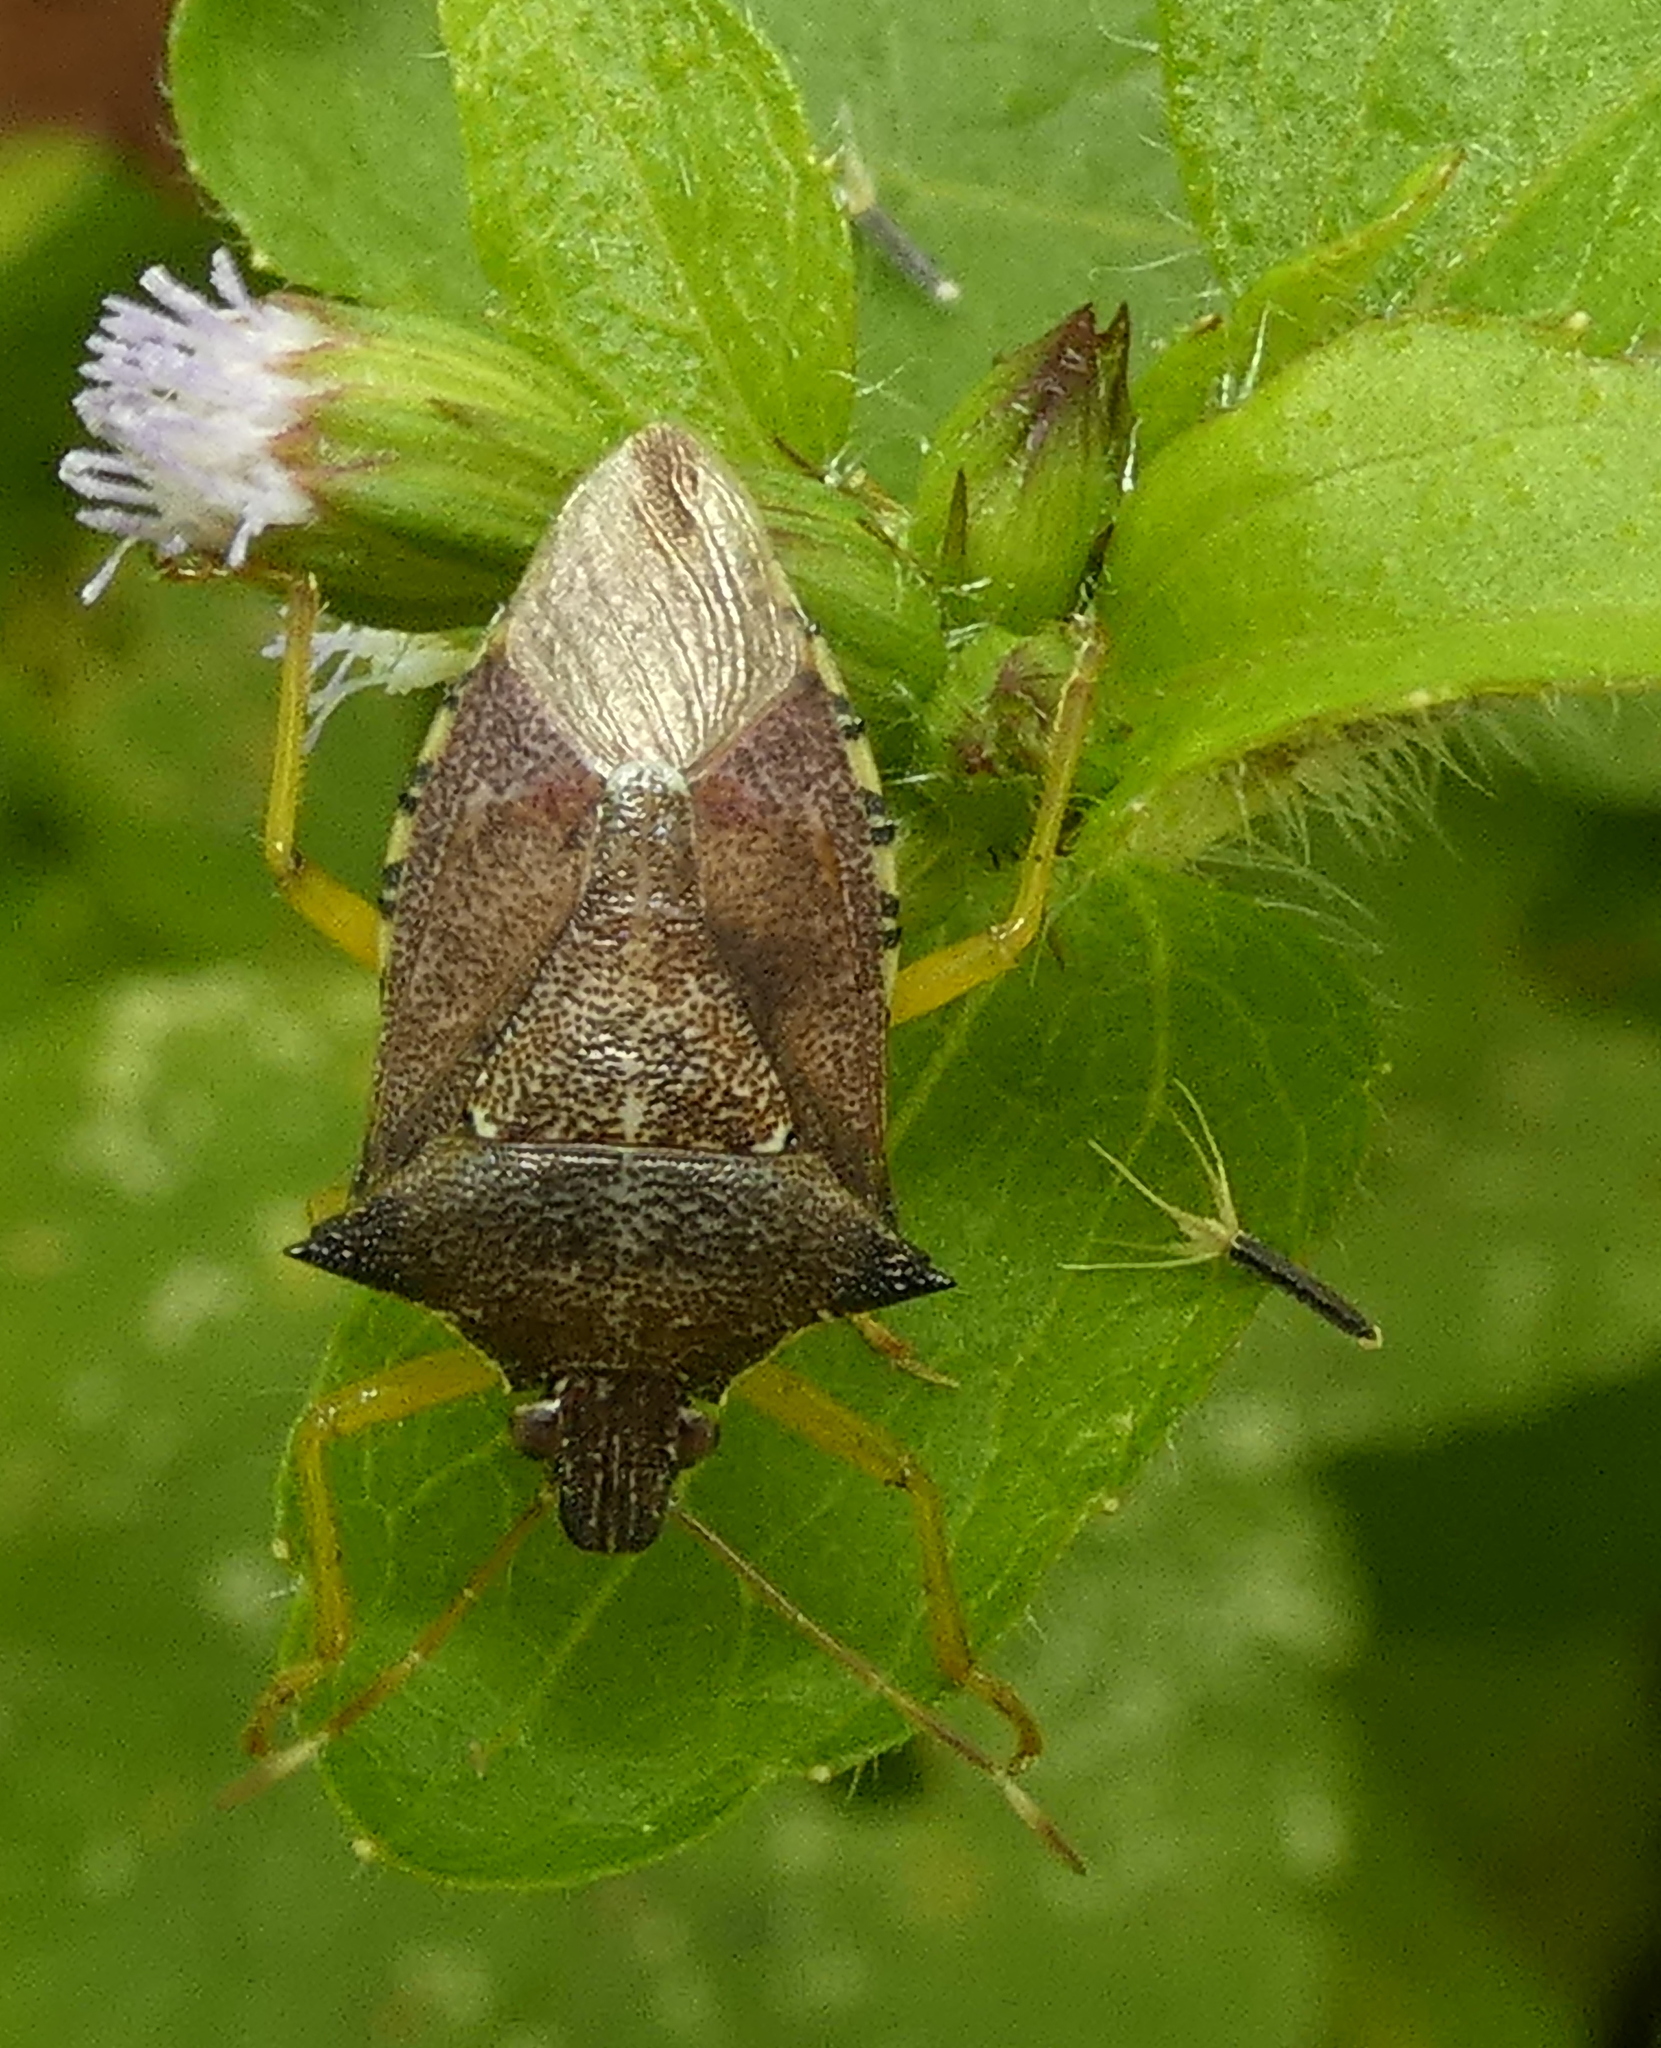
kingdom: Animalia
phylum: Arthropoda
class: Insecta
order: Hemiptera
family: Pentatomidae
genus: Podisus
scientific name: Podisus nigrispinus
